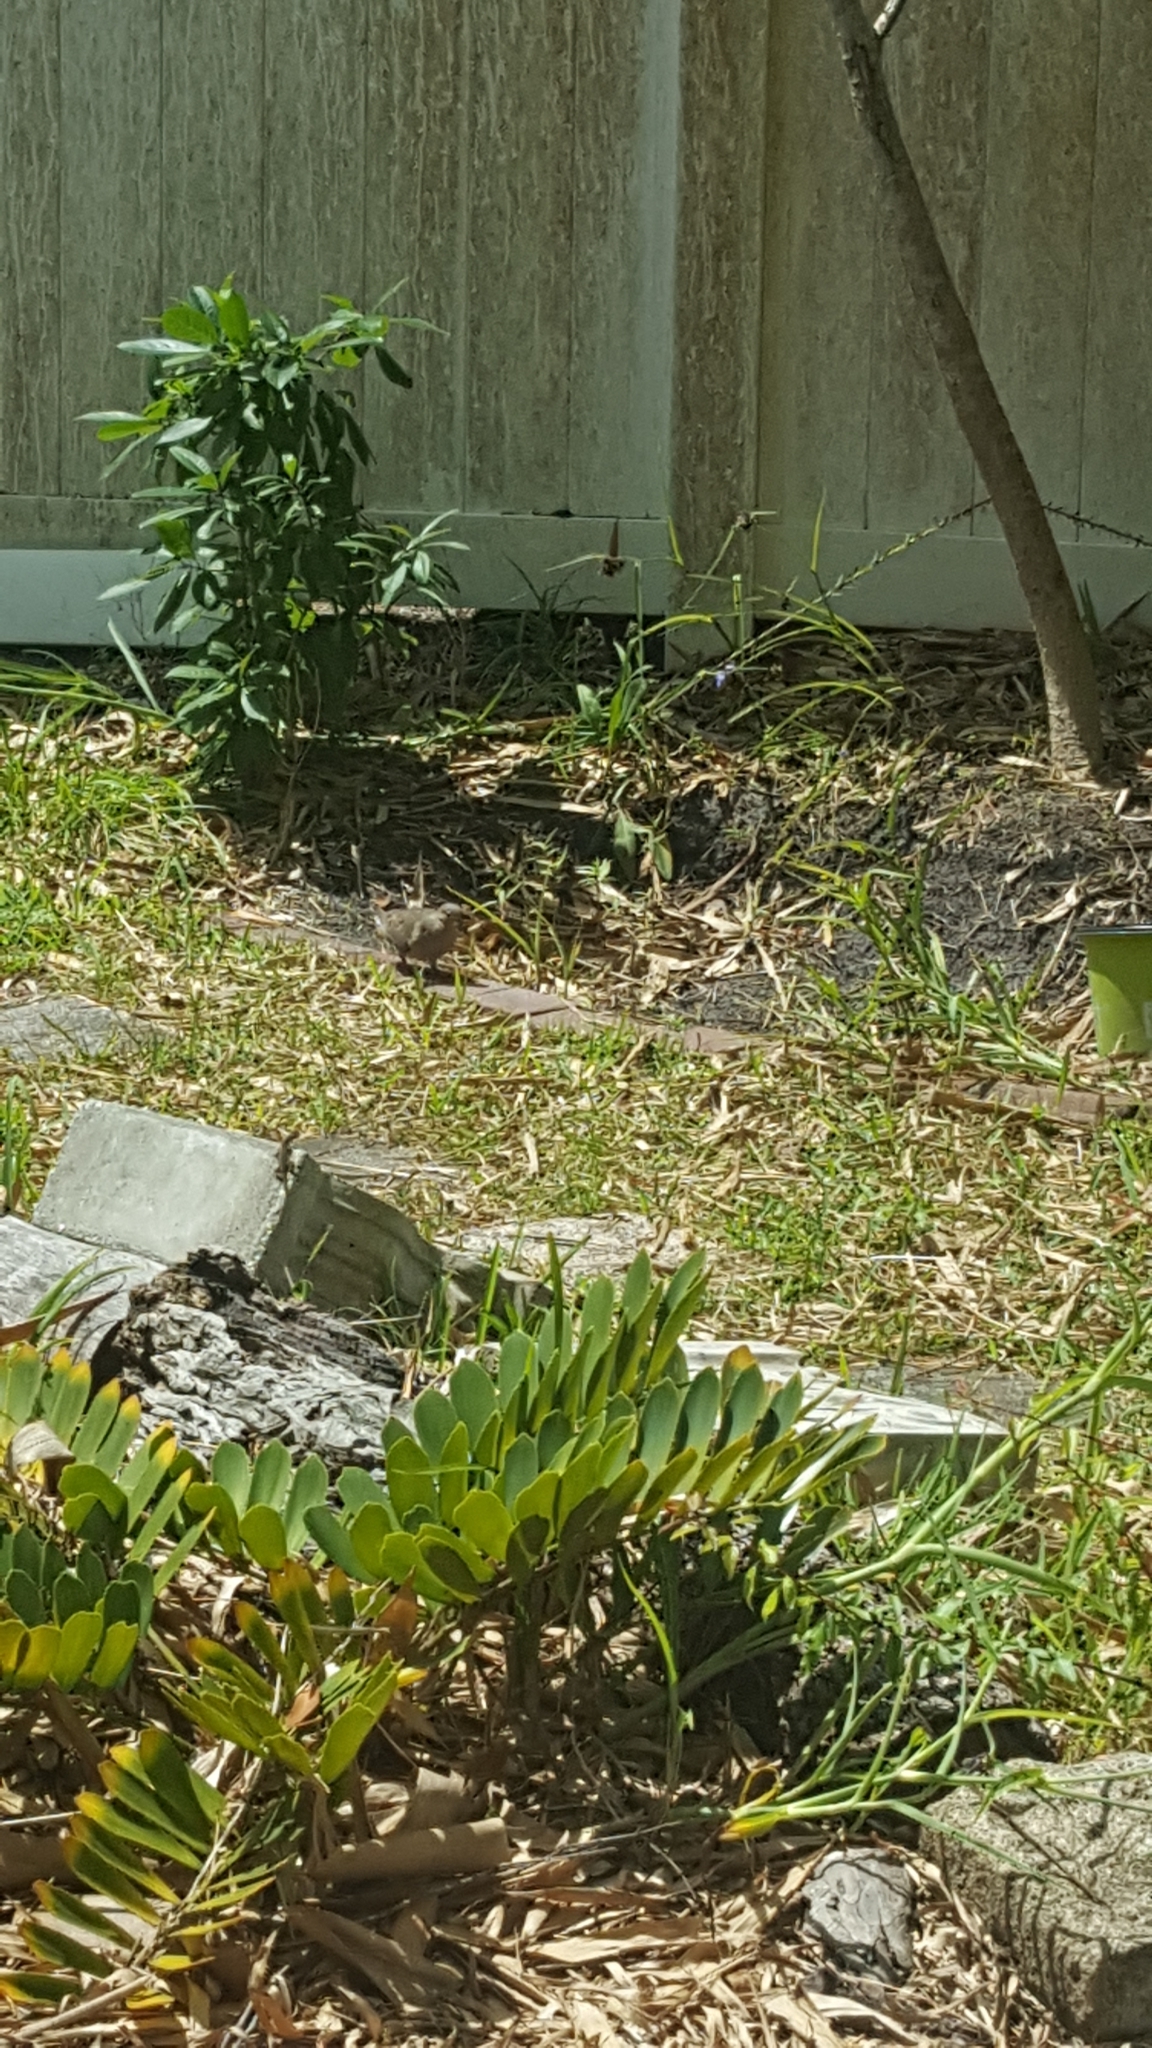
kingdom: Animalia
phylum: Chordata
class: Aves
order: Columbiformes
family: Columbidae
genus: Zenaida
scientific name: Zenaida macroura
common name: Mourning dove
